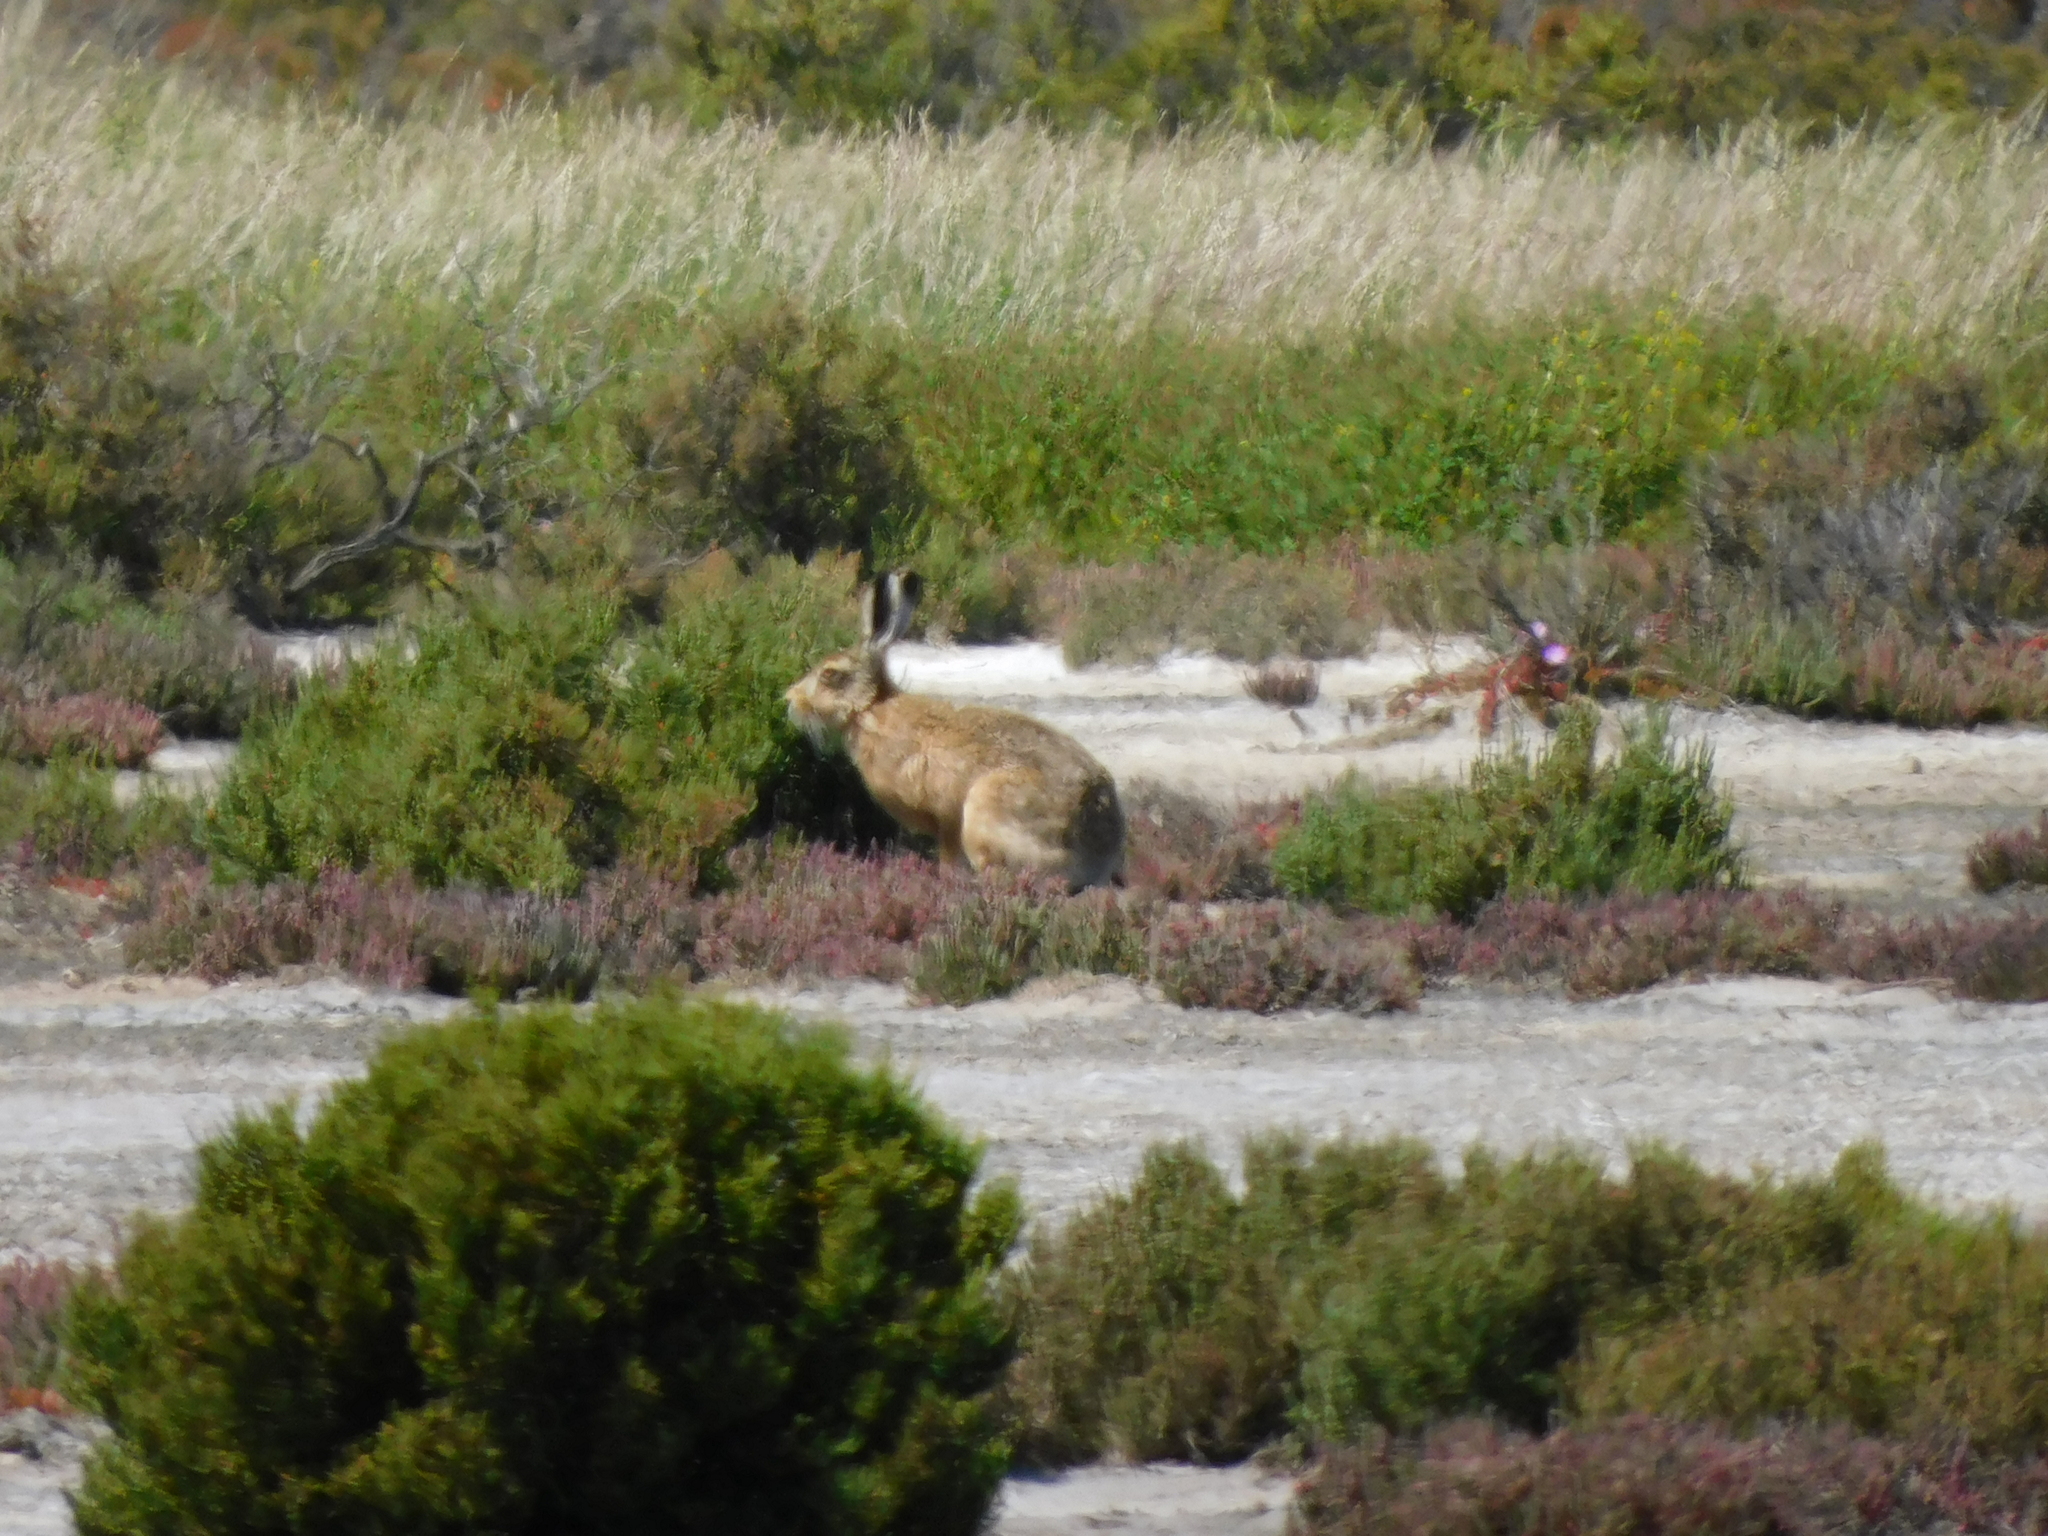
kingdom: Animalia
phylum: Chordata
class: Mammalia
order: Lagomorpha
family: Leporidae
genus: Lepus
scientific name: Lepus europaeus
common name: European hare
